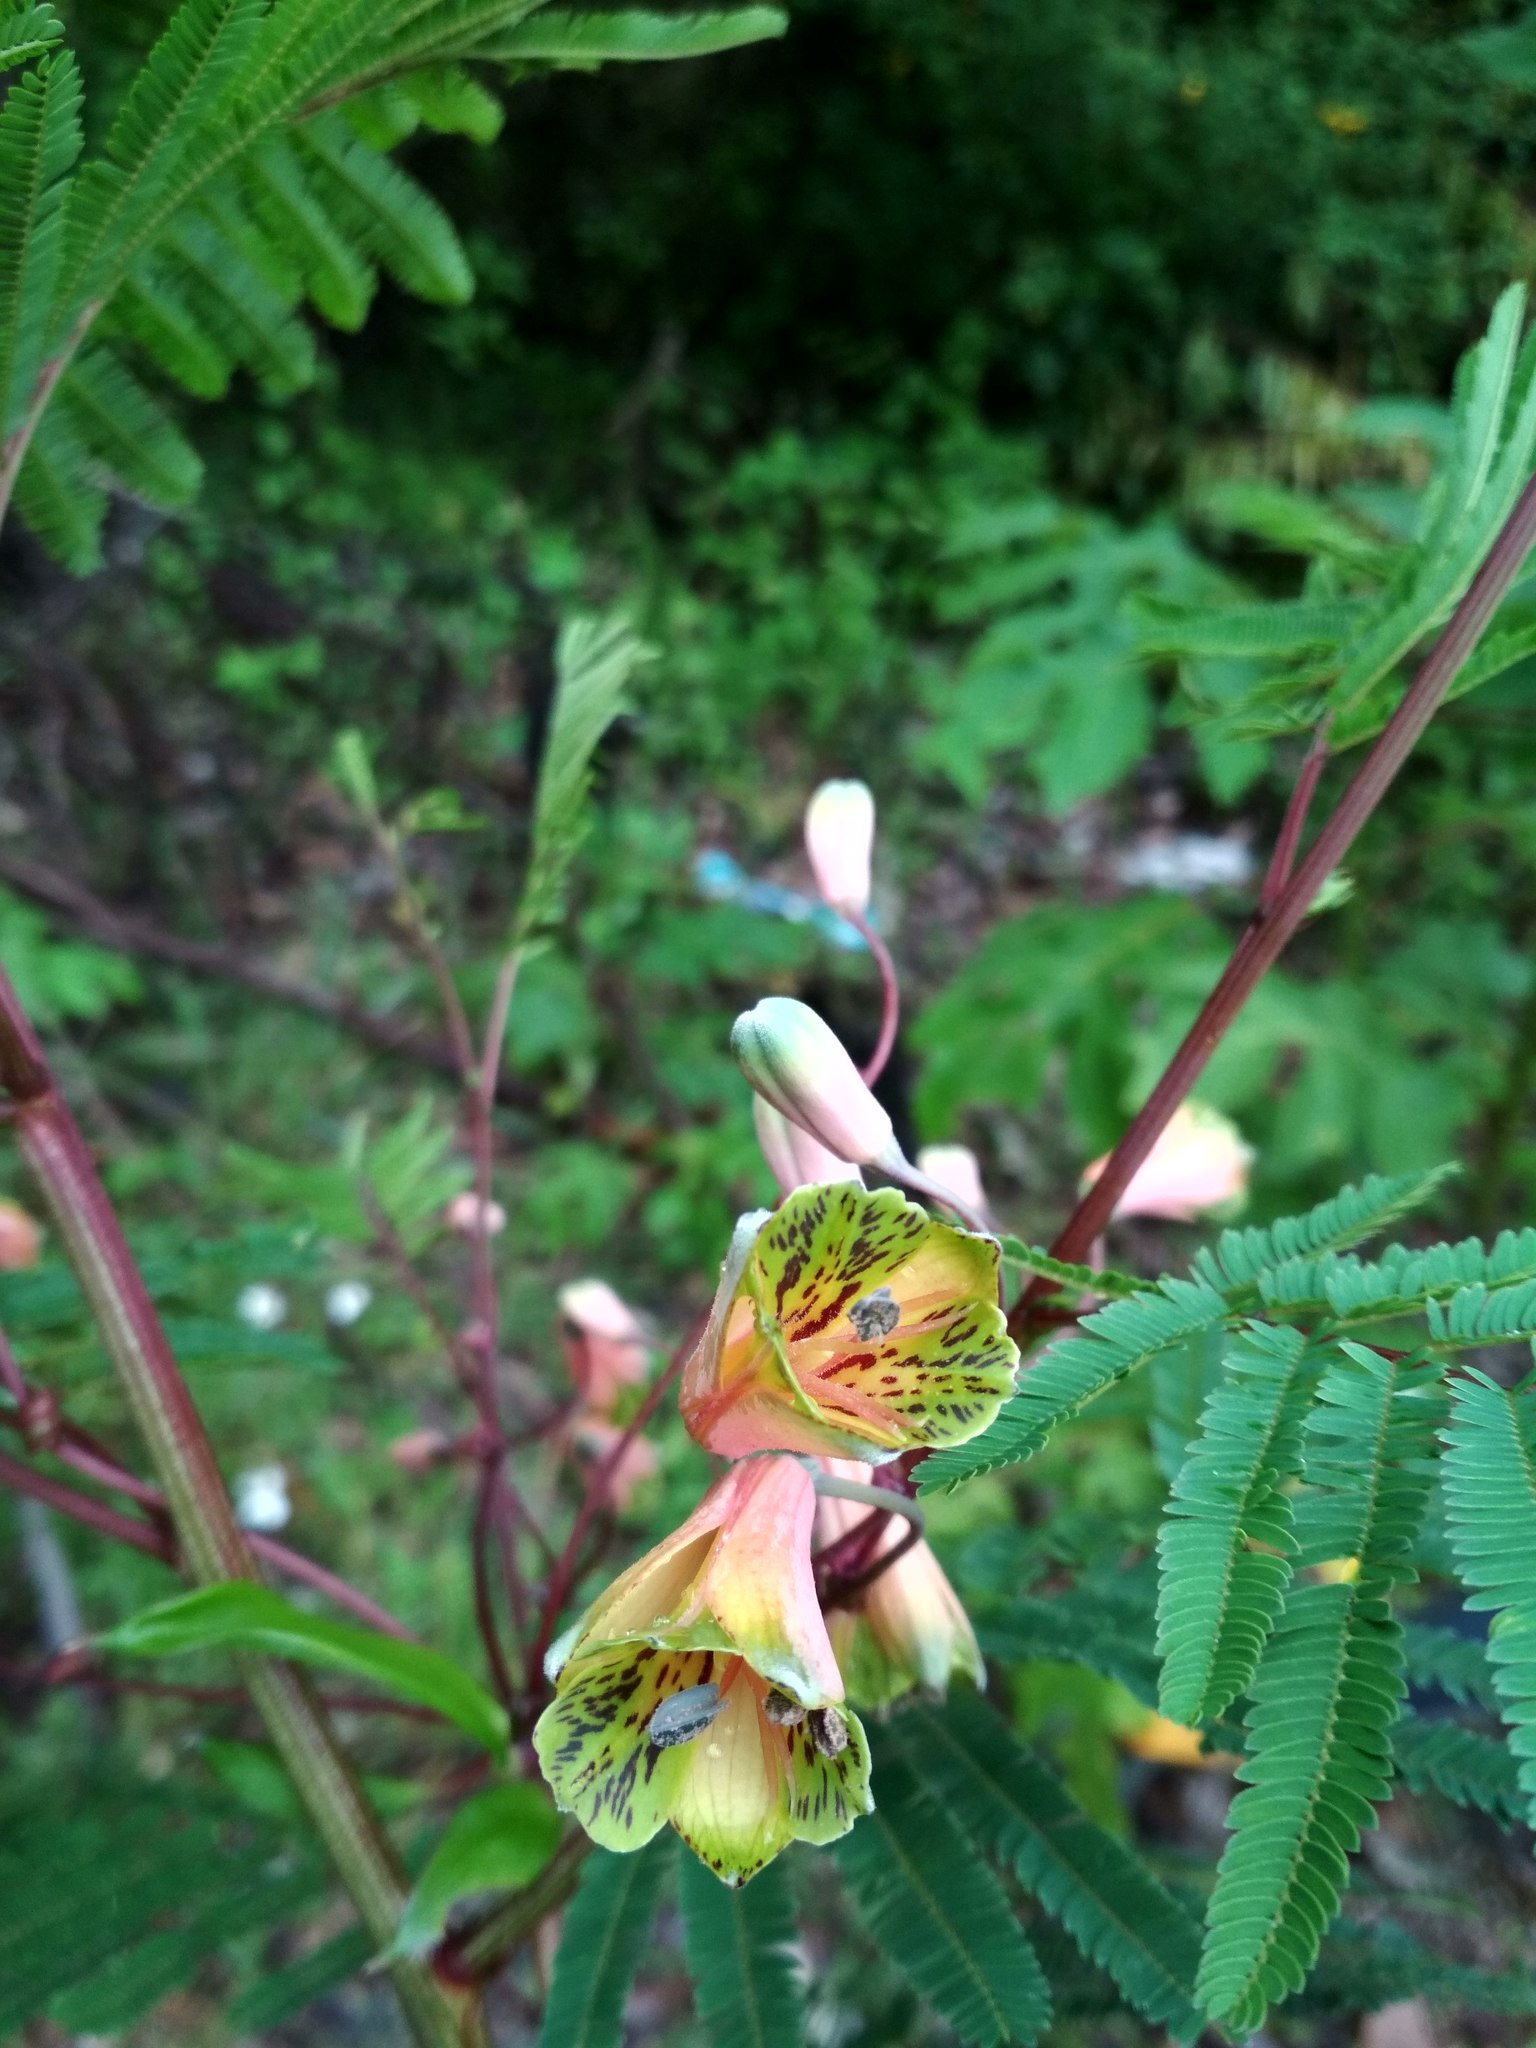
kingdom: Plantae
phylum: Tracheophyta
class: Liliopsida
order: Liliales
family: Alstroemeriaceae
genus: Bomarea
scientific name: Bomarea edulis
